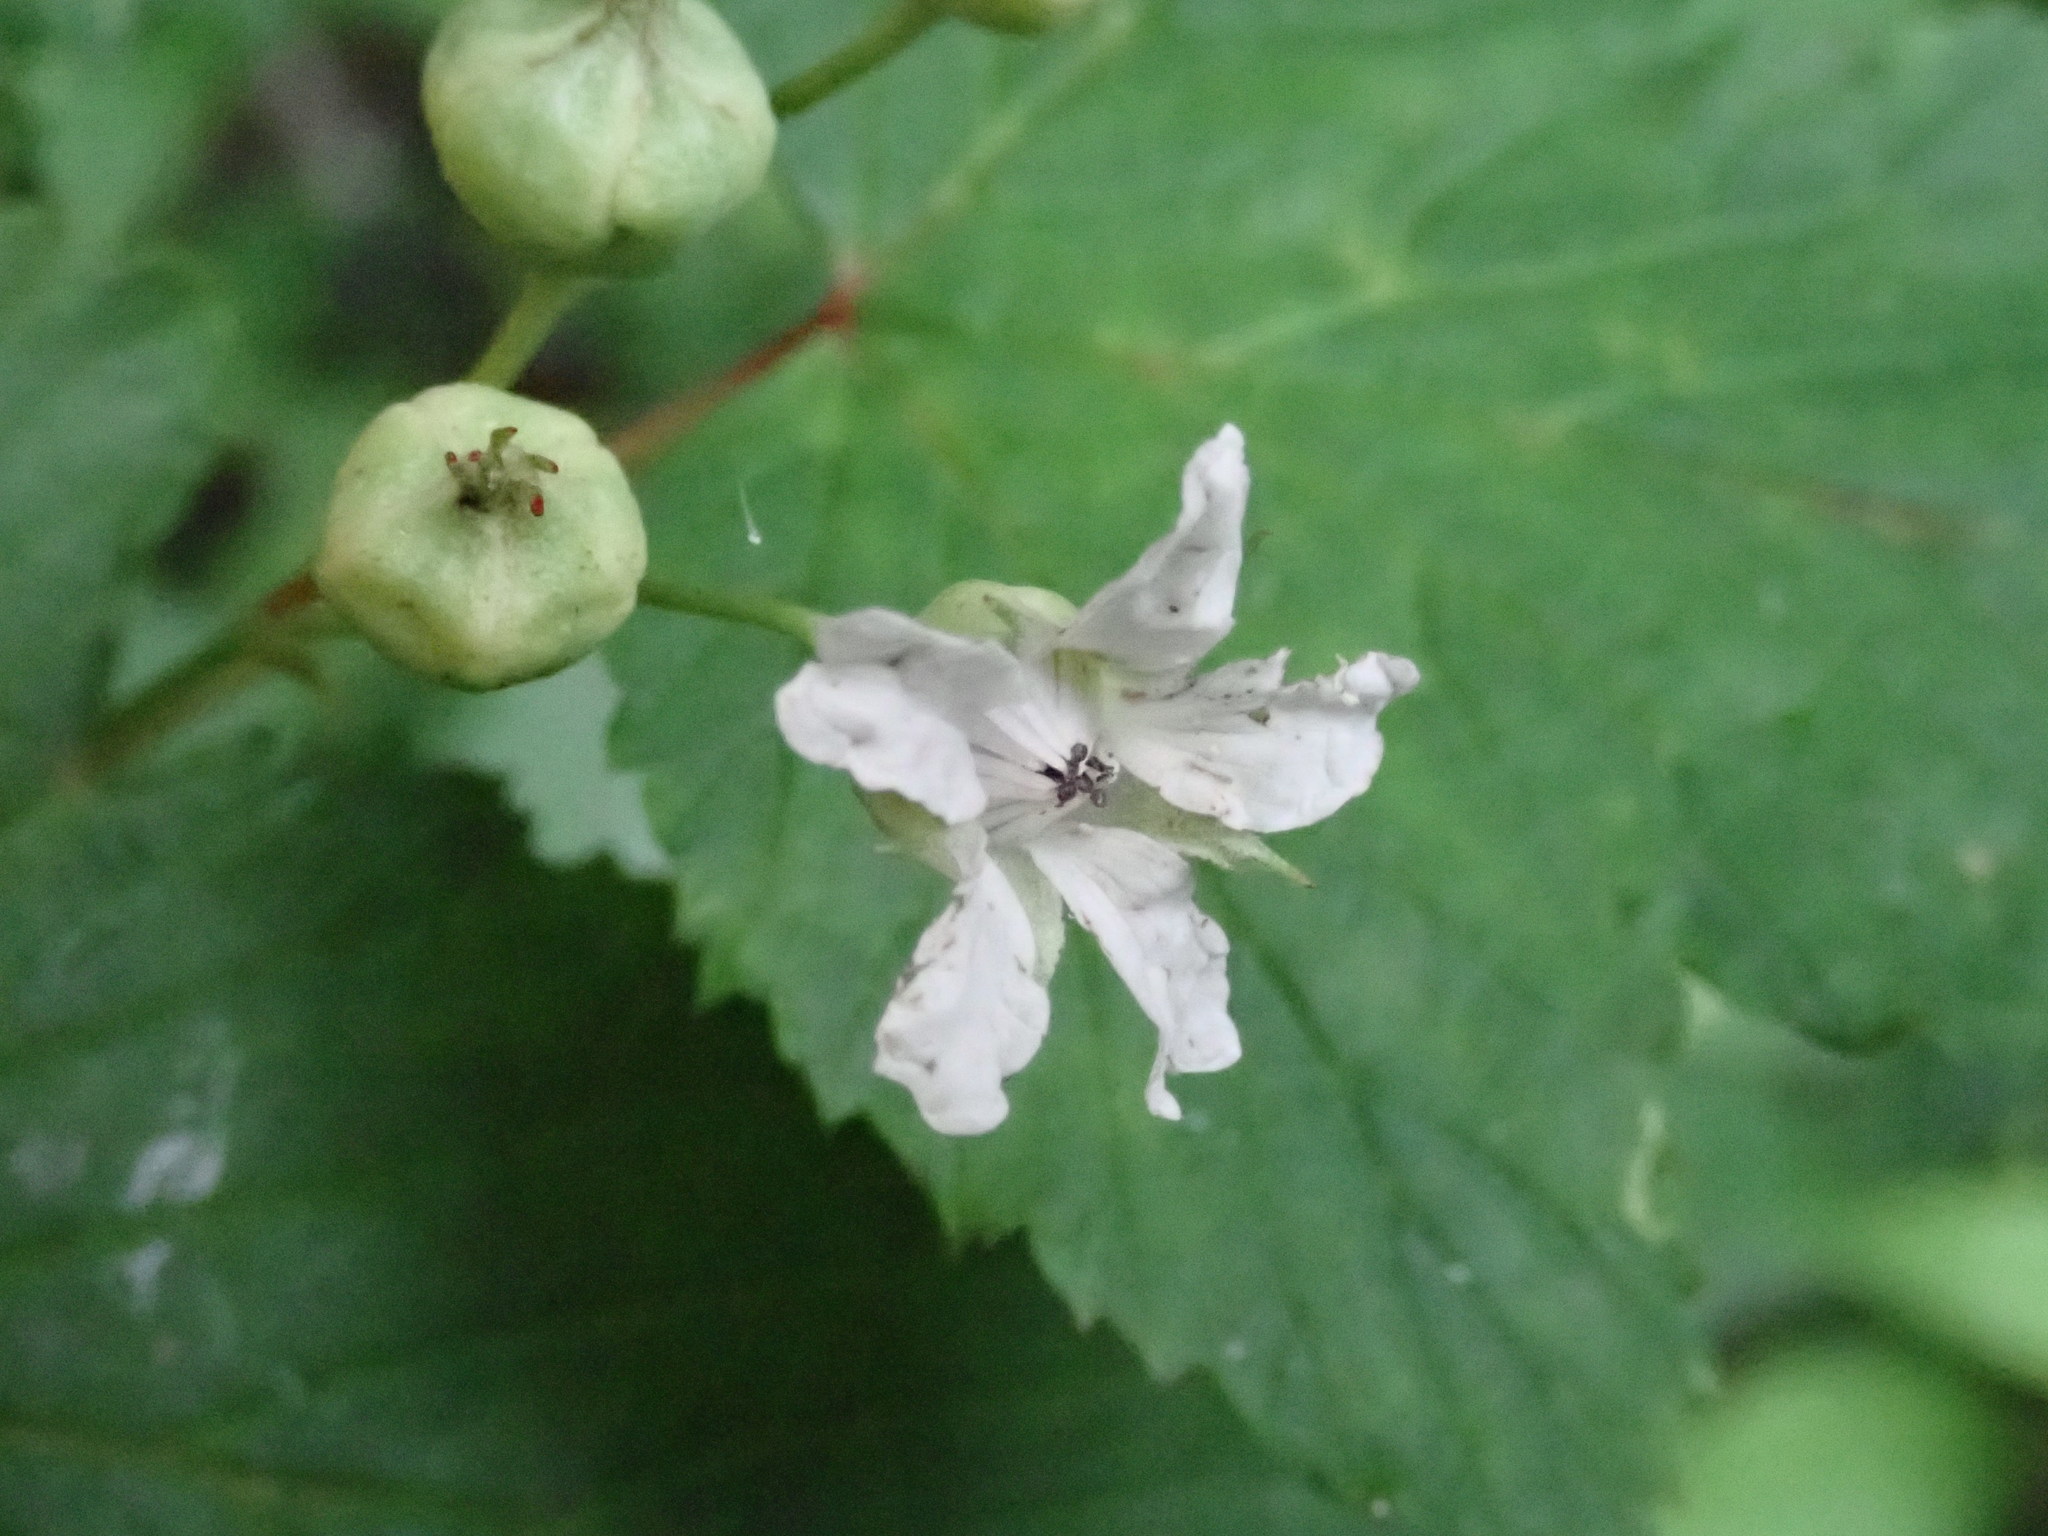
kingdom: Plantae
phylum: Tracheophyta
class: Magnoliopsida
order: Rosales
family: Rosaceae
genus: Rubus
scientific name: Rubus subcrataegifolius
